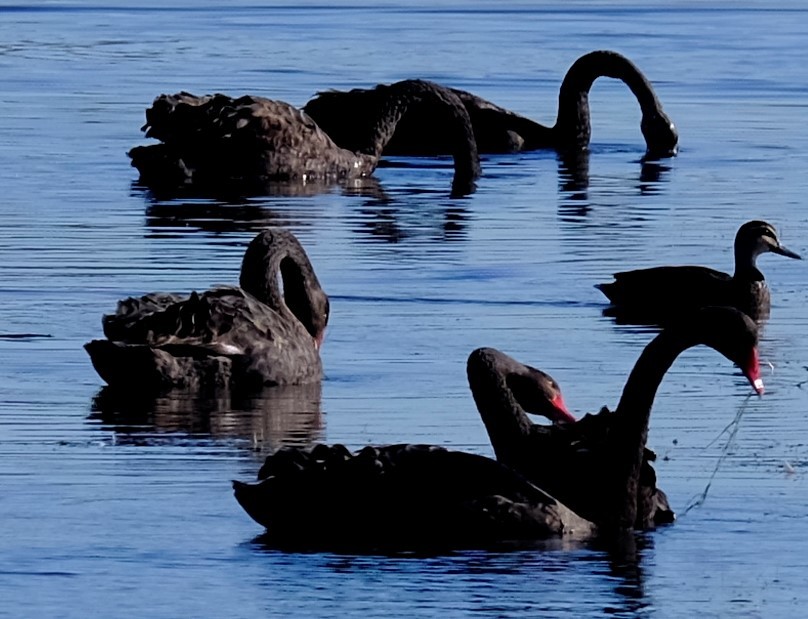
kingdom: Animalia
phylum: Chordata
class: Aves
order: Anseriformes
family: Anatidae
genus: Cygnus
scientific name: Cygnus atratus
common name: Black swan
